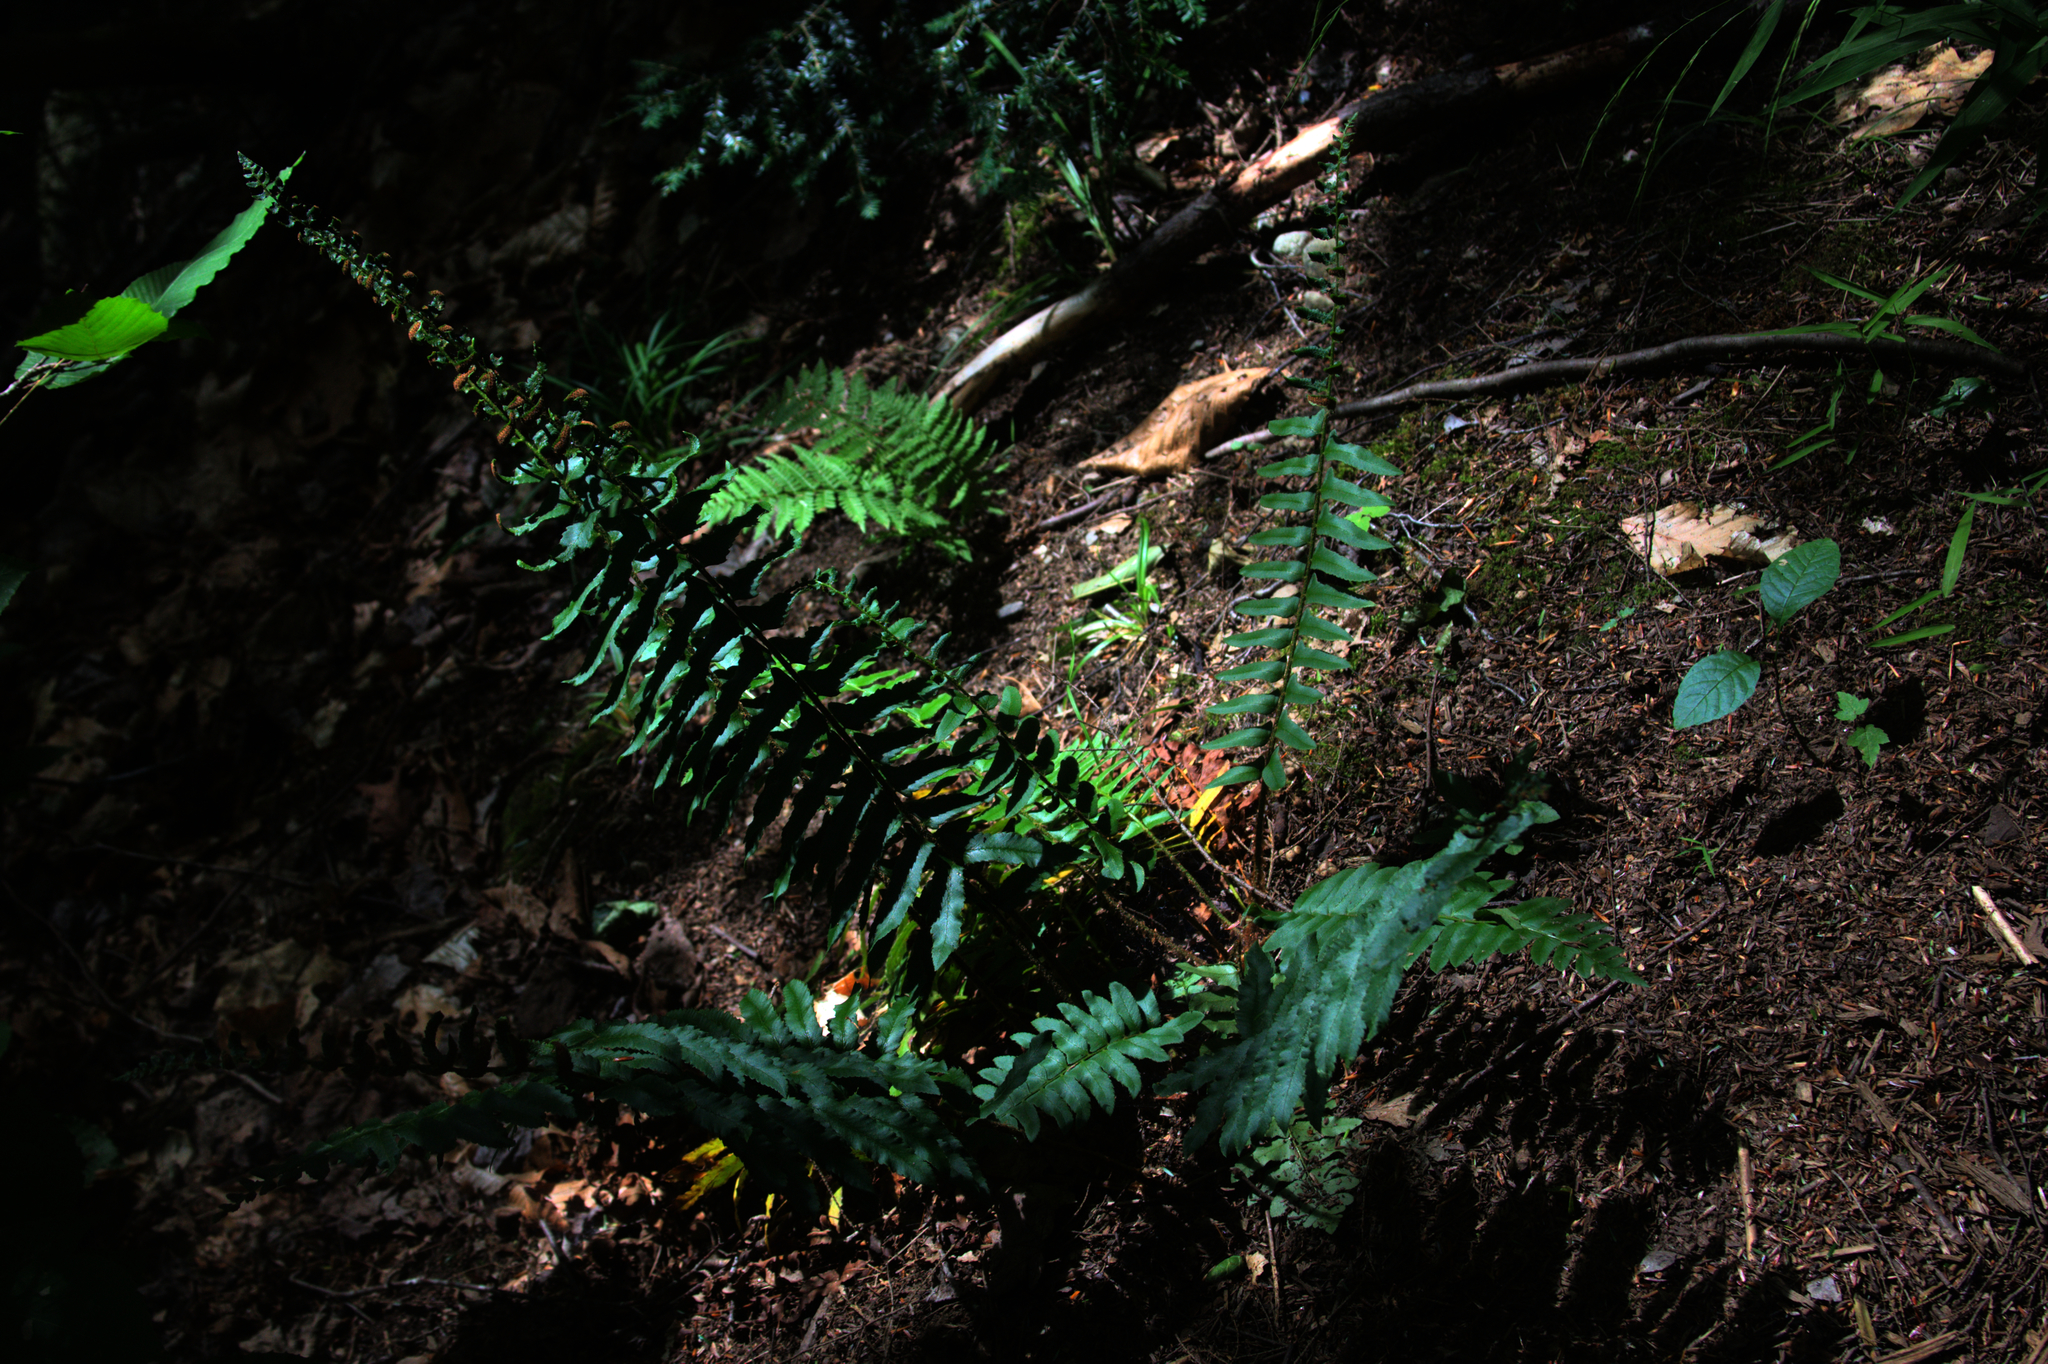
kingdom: Plantae
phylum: Tracheophyta
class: Polypodiopsida
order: Polypodiales
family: Dryopteridaceae
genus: Polystichum
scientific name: Polystichum acrostichoides
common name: Christmas fern
